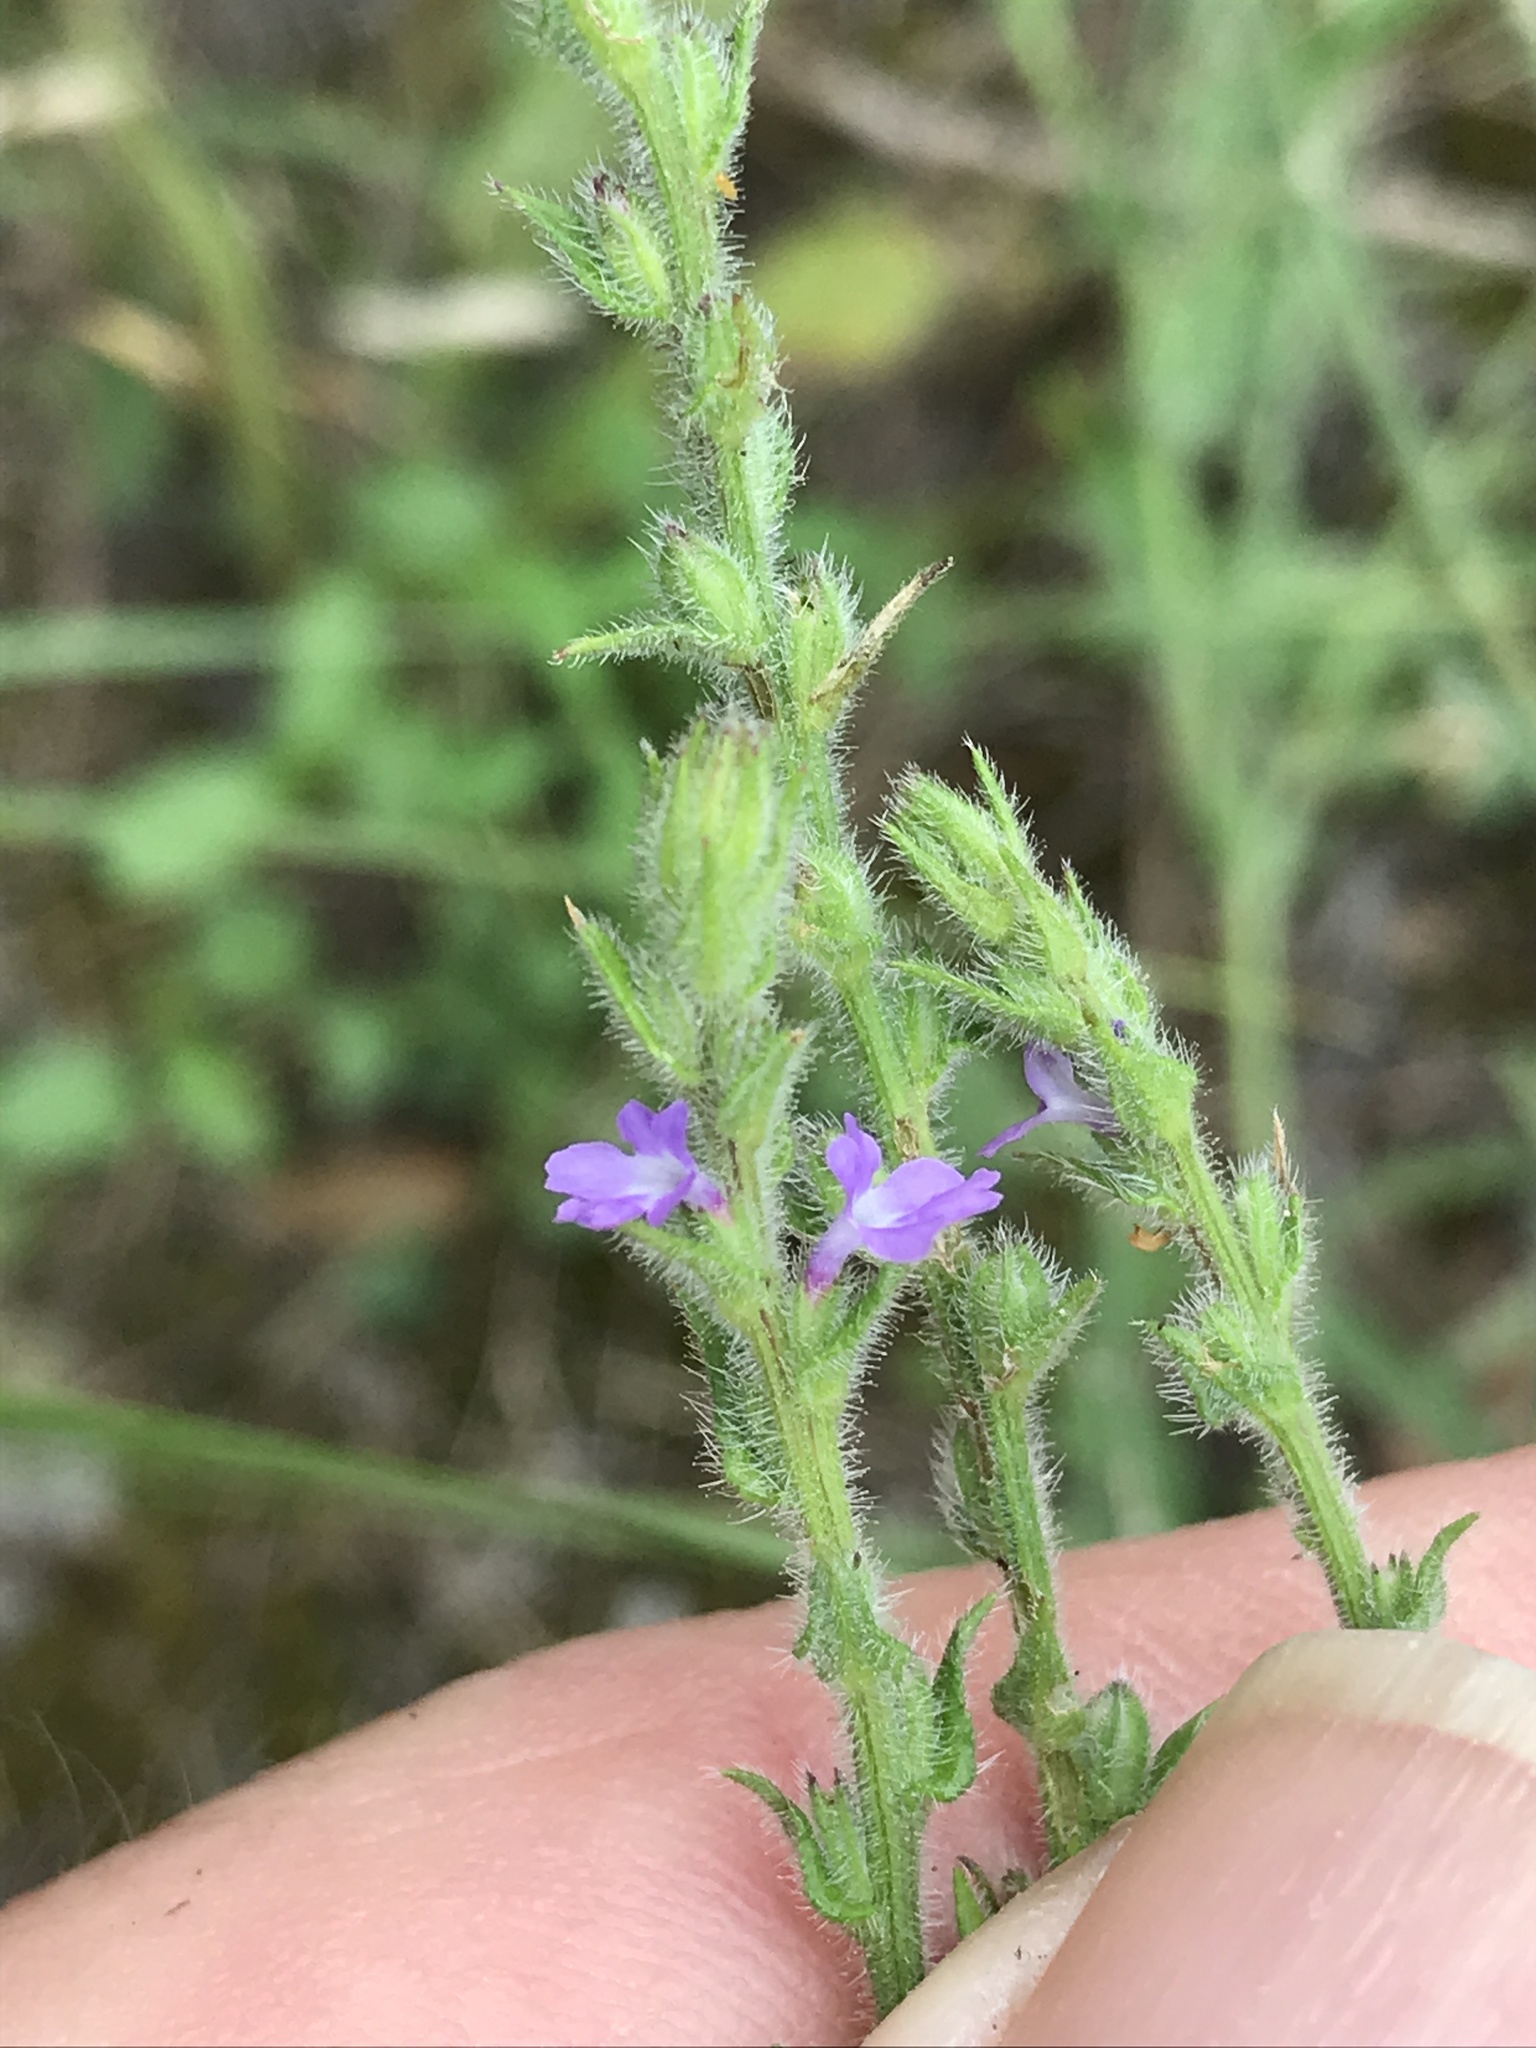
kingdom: Plantae
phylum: Tracheophyta
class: Magnoliopsida
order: Lamiales
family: Verbenaceae
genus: Verbena
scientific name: Verbena canescens
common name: Gray vervain
